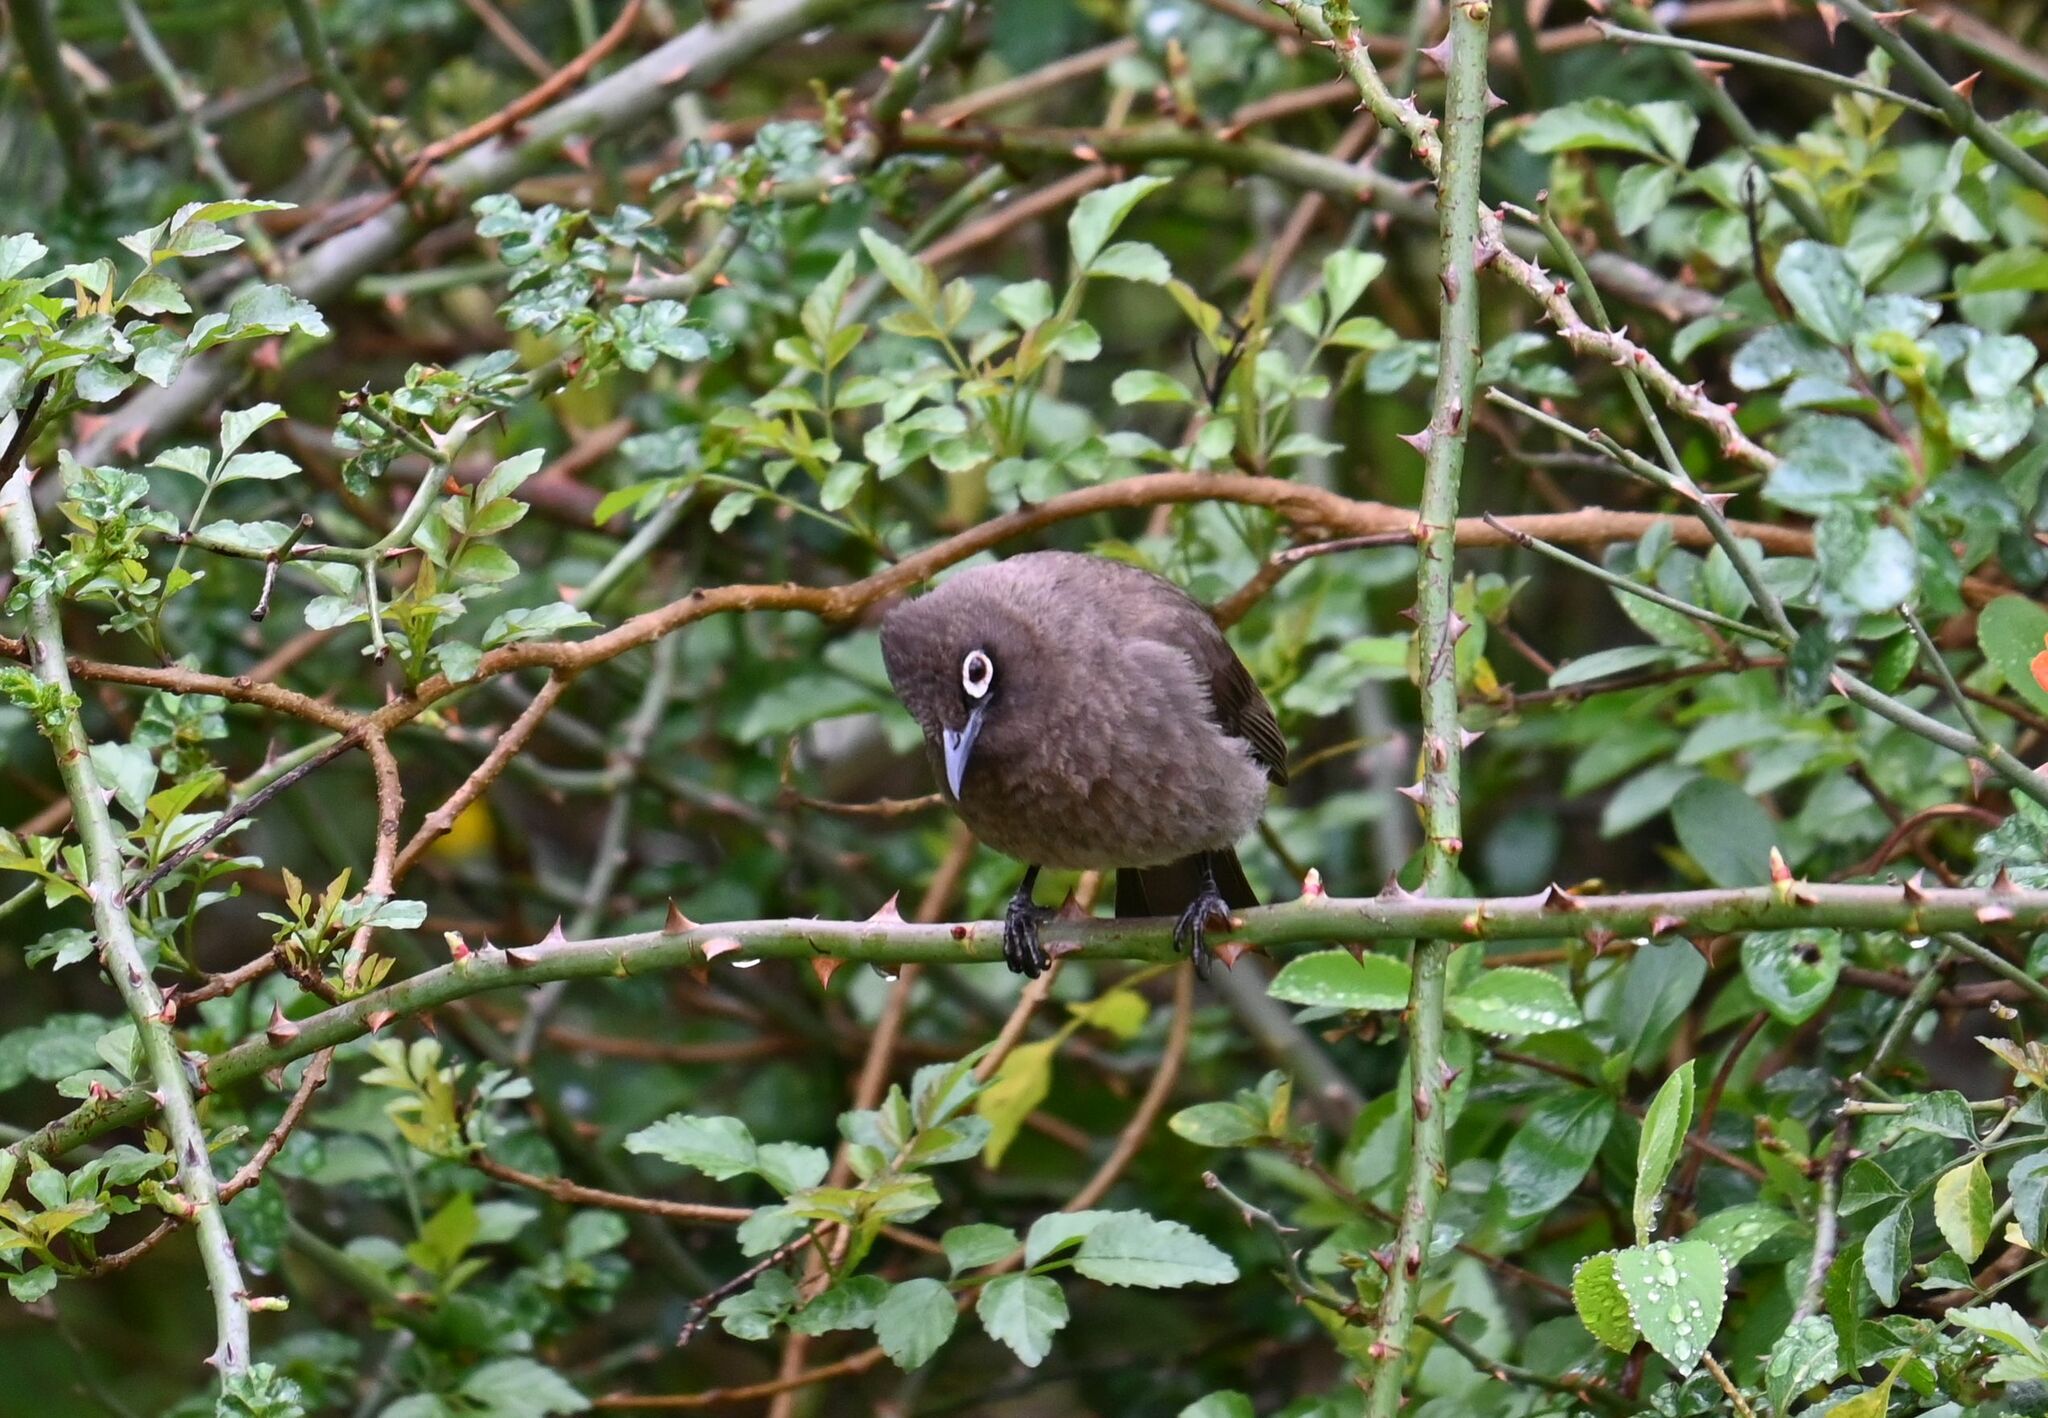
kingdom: Animalia
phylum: Chordata
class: Aves
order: Passeriformes
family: Pycnonotidae
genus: Pycnonotus
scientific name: Pycnonotus capensis
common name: Cape bulbul
